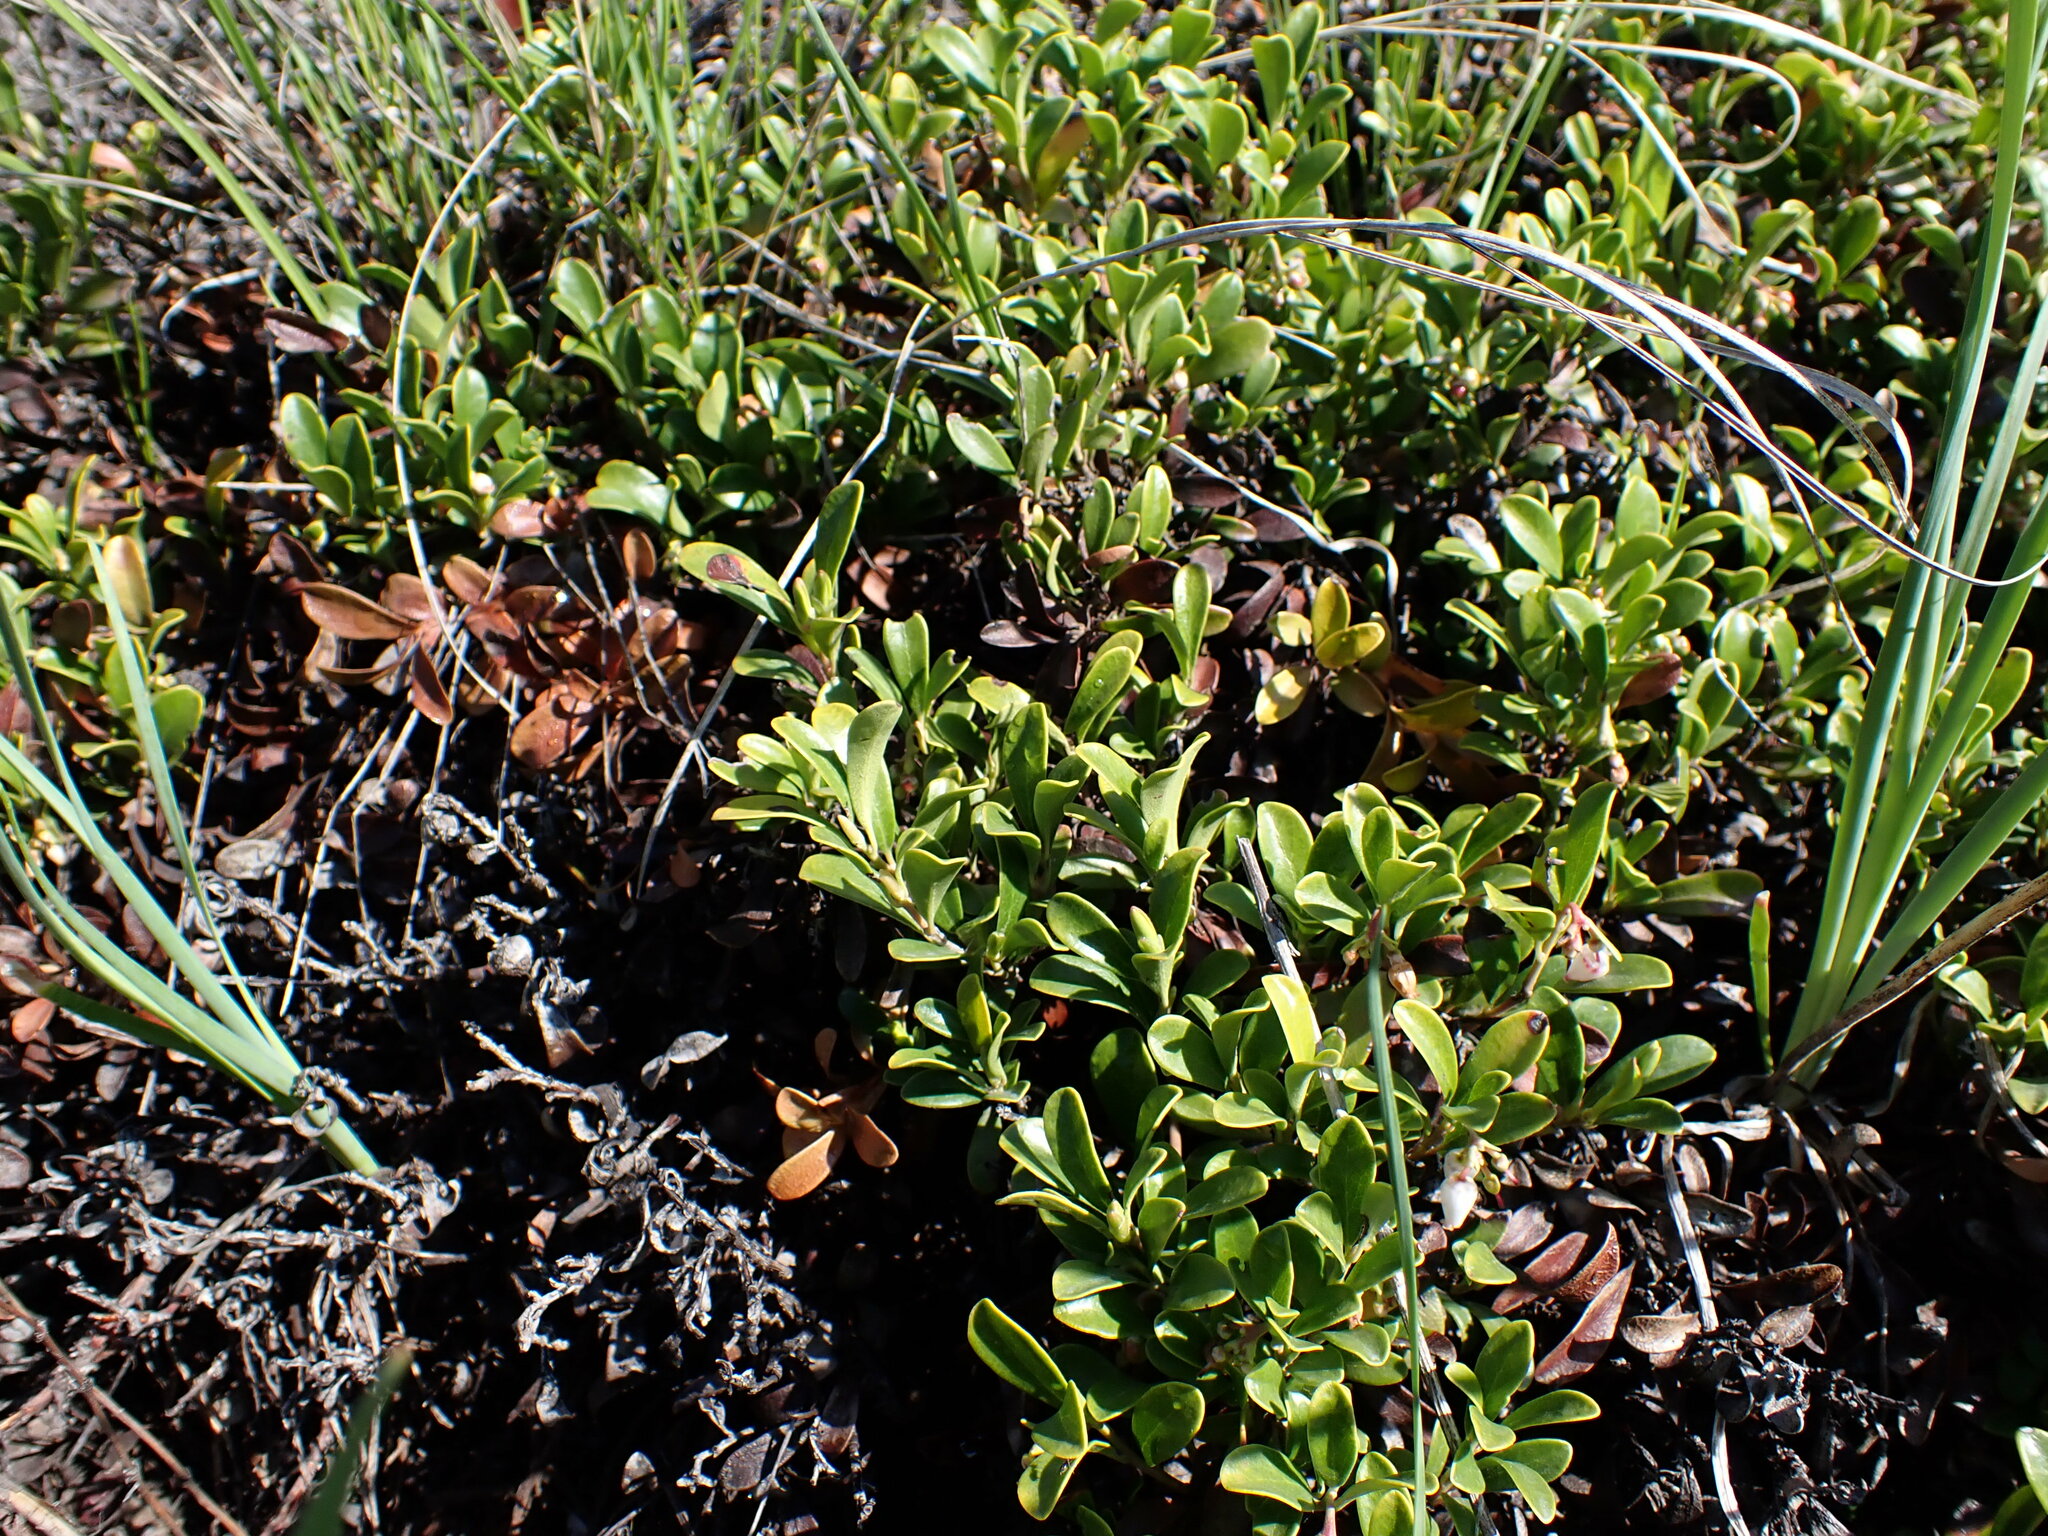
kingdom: Plantae
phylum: Tracheophyta
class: Magnoliopsida
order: Ericales
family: Ericaceae
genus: Arctostaphylos
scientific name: Arctostaphylos uva-ursi
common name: Bearberry
